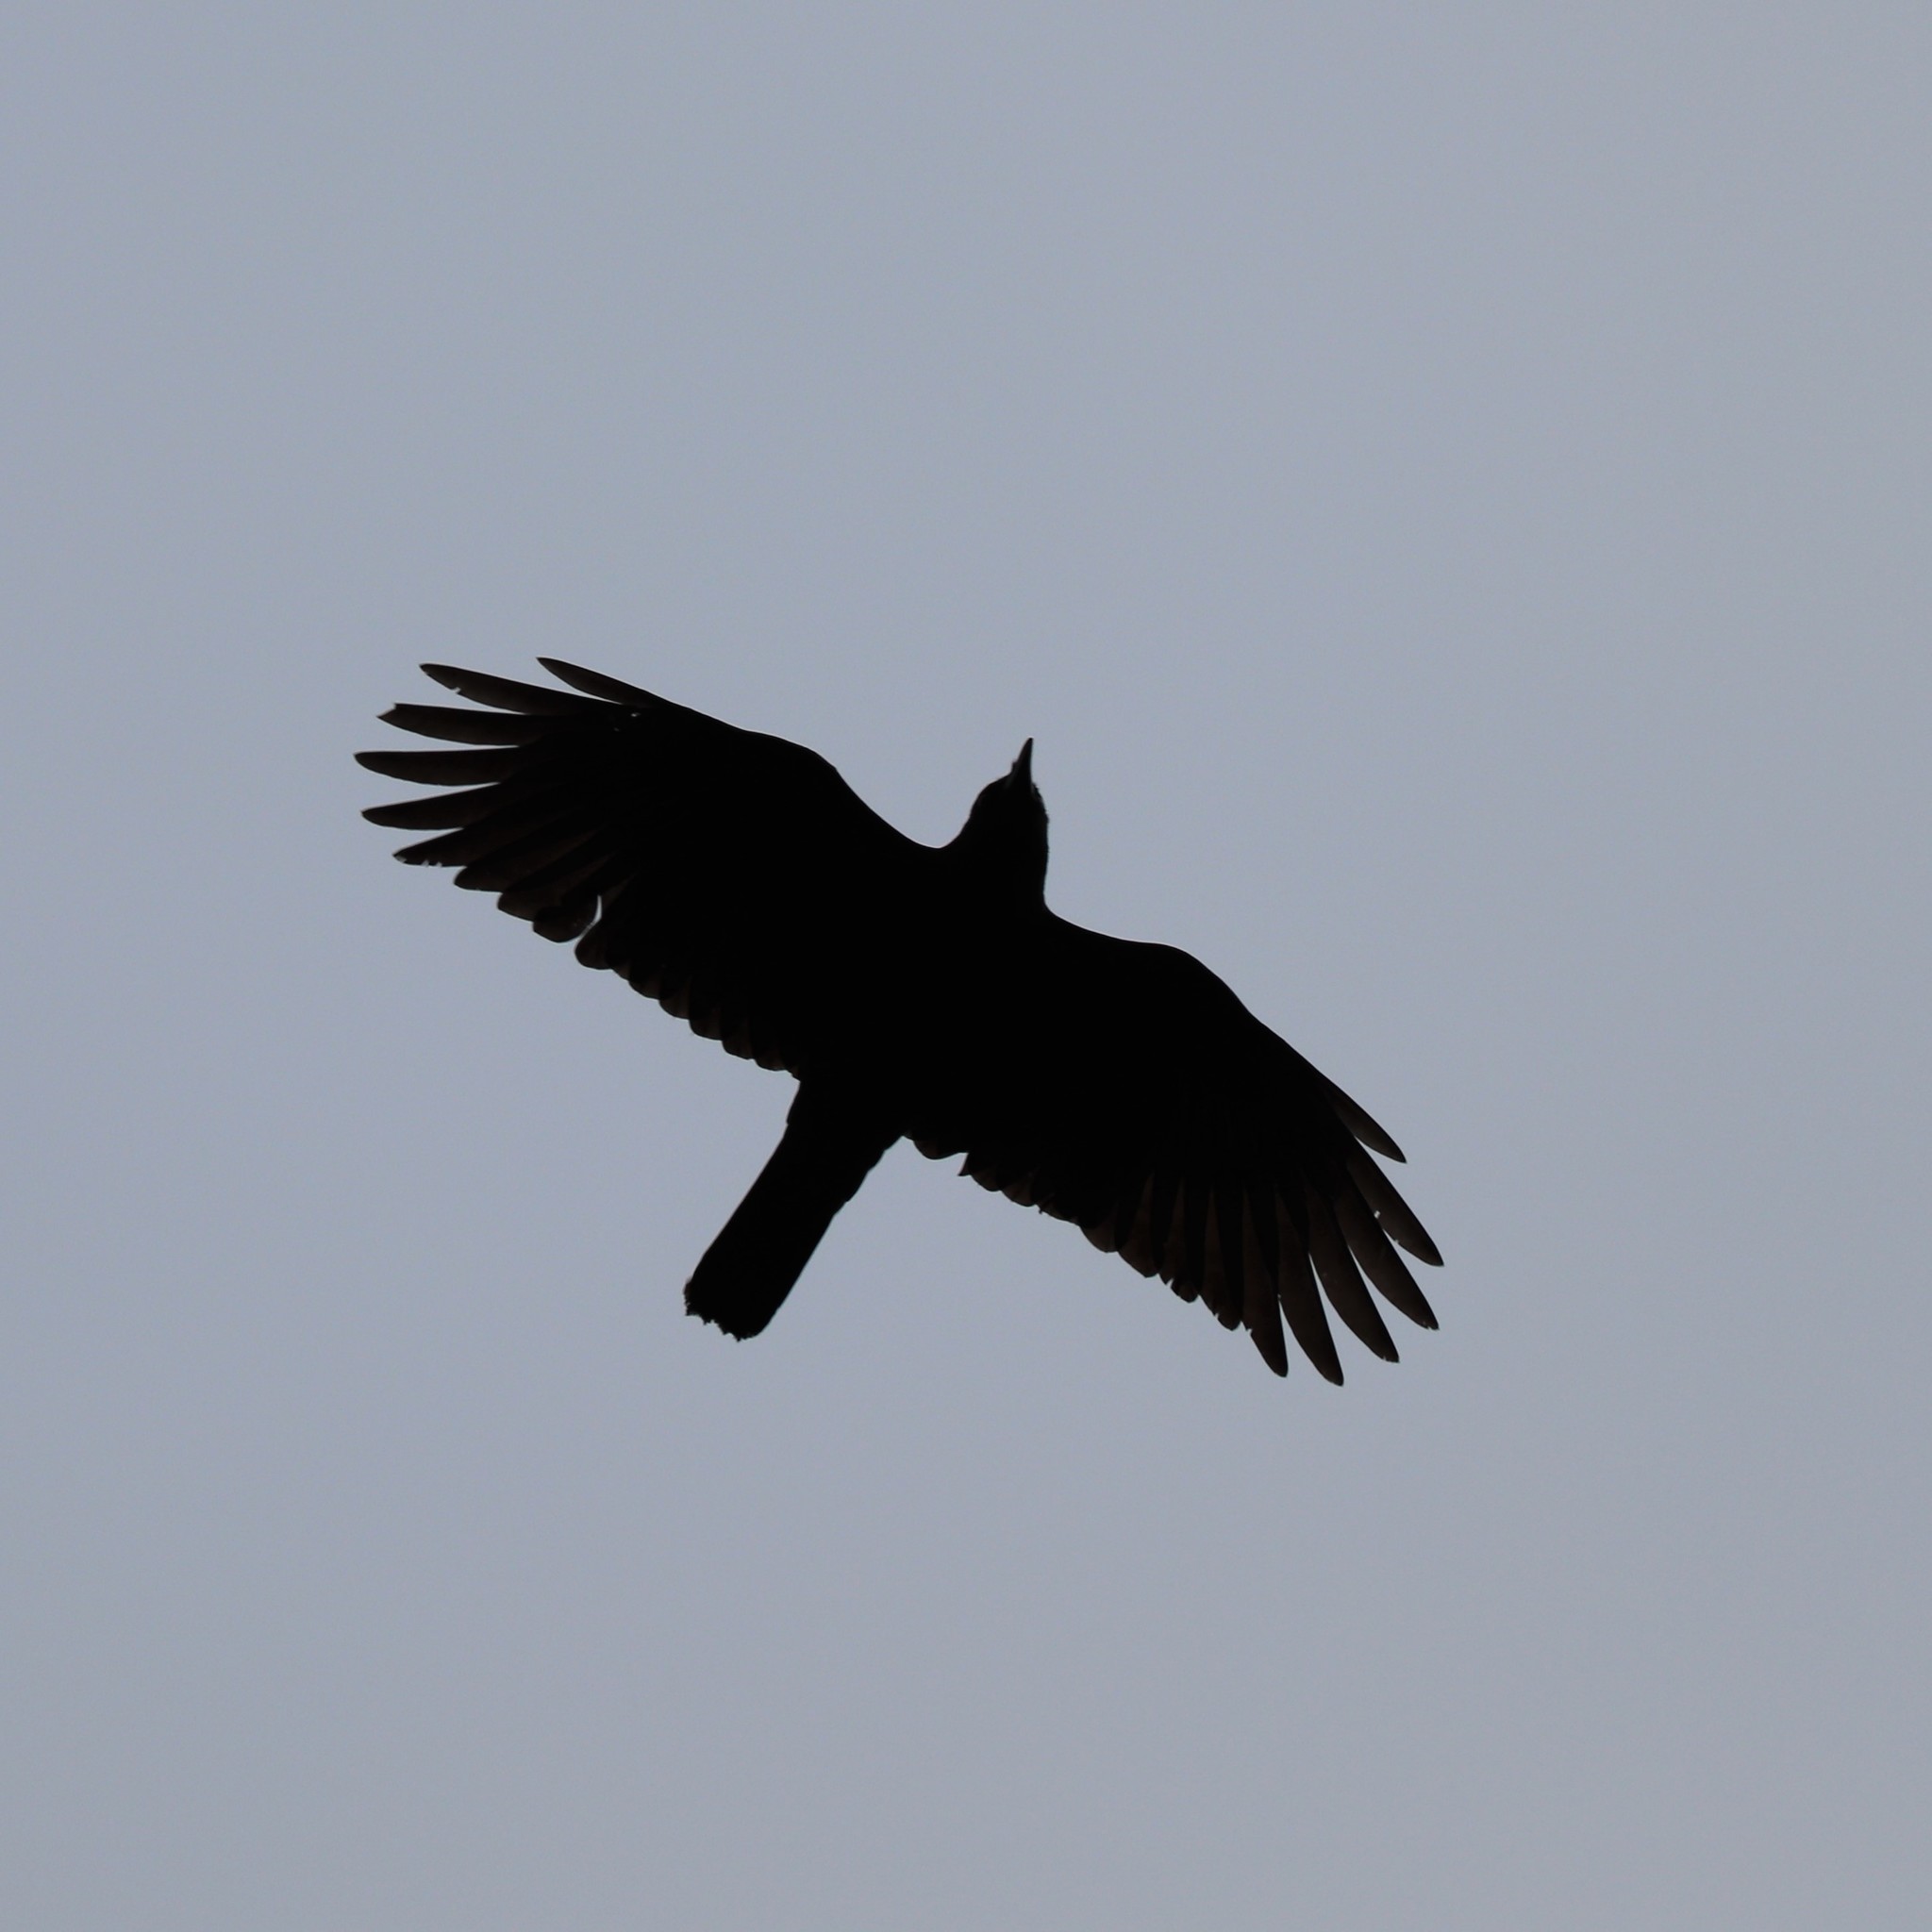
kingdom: Animalia
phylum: Chordata
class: Aves
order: Passeriformes
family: Corvidae
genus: Corvus
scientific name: Corvus brachyrhynchos
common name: American crow
